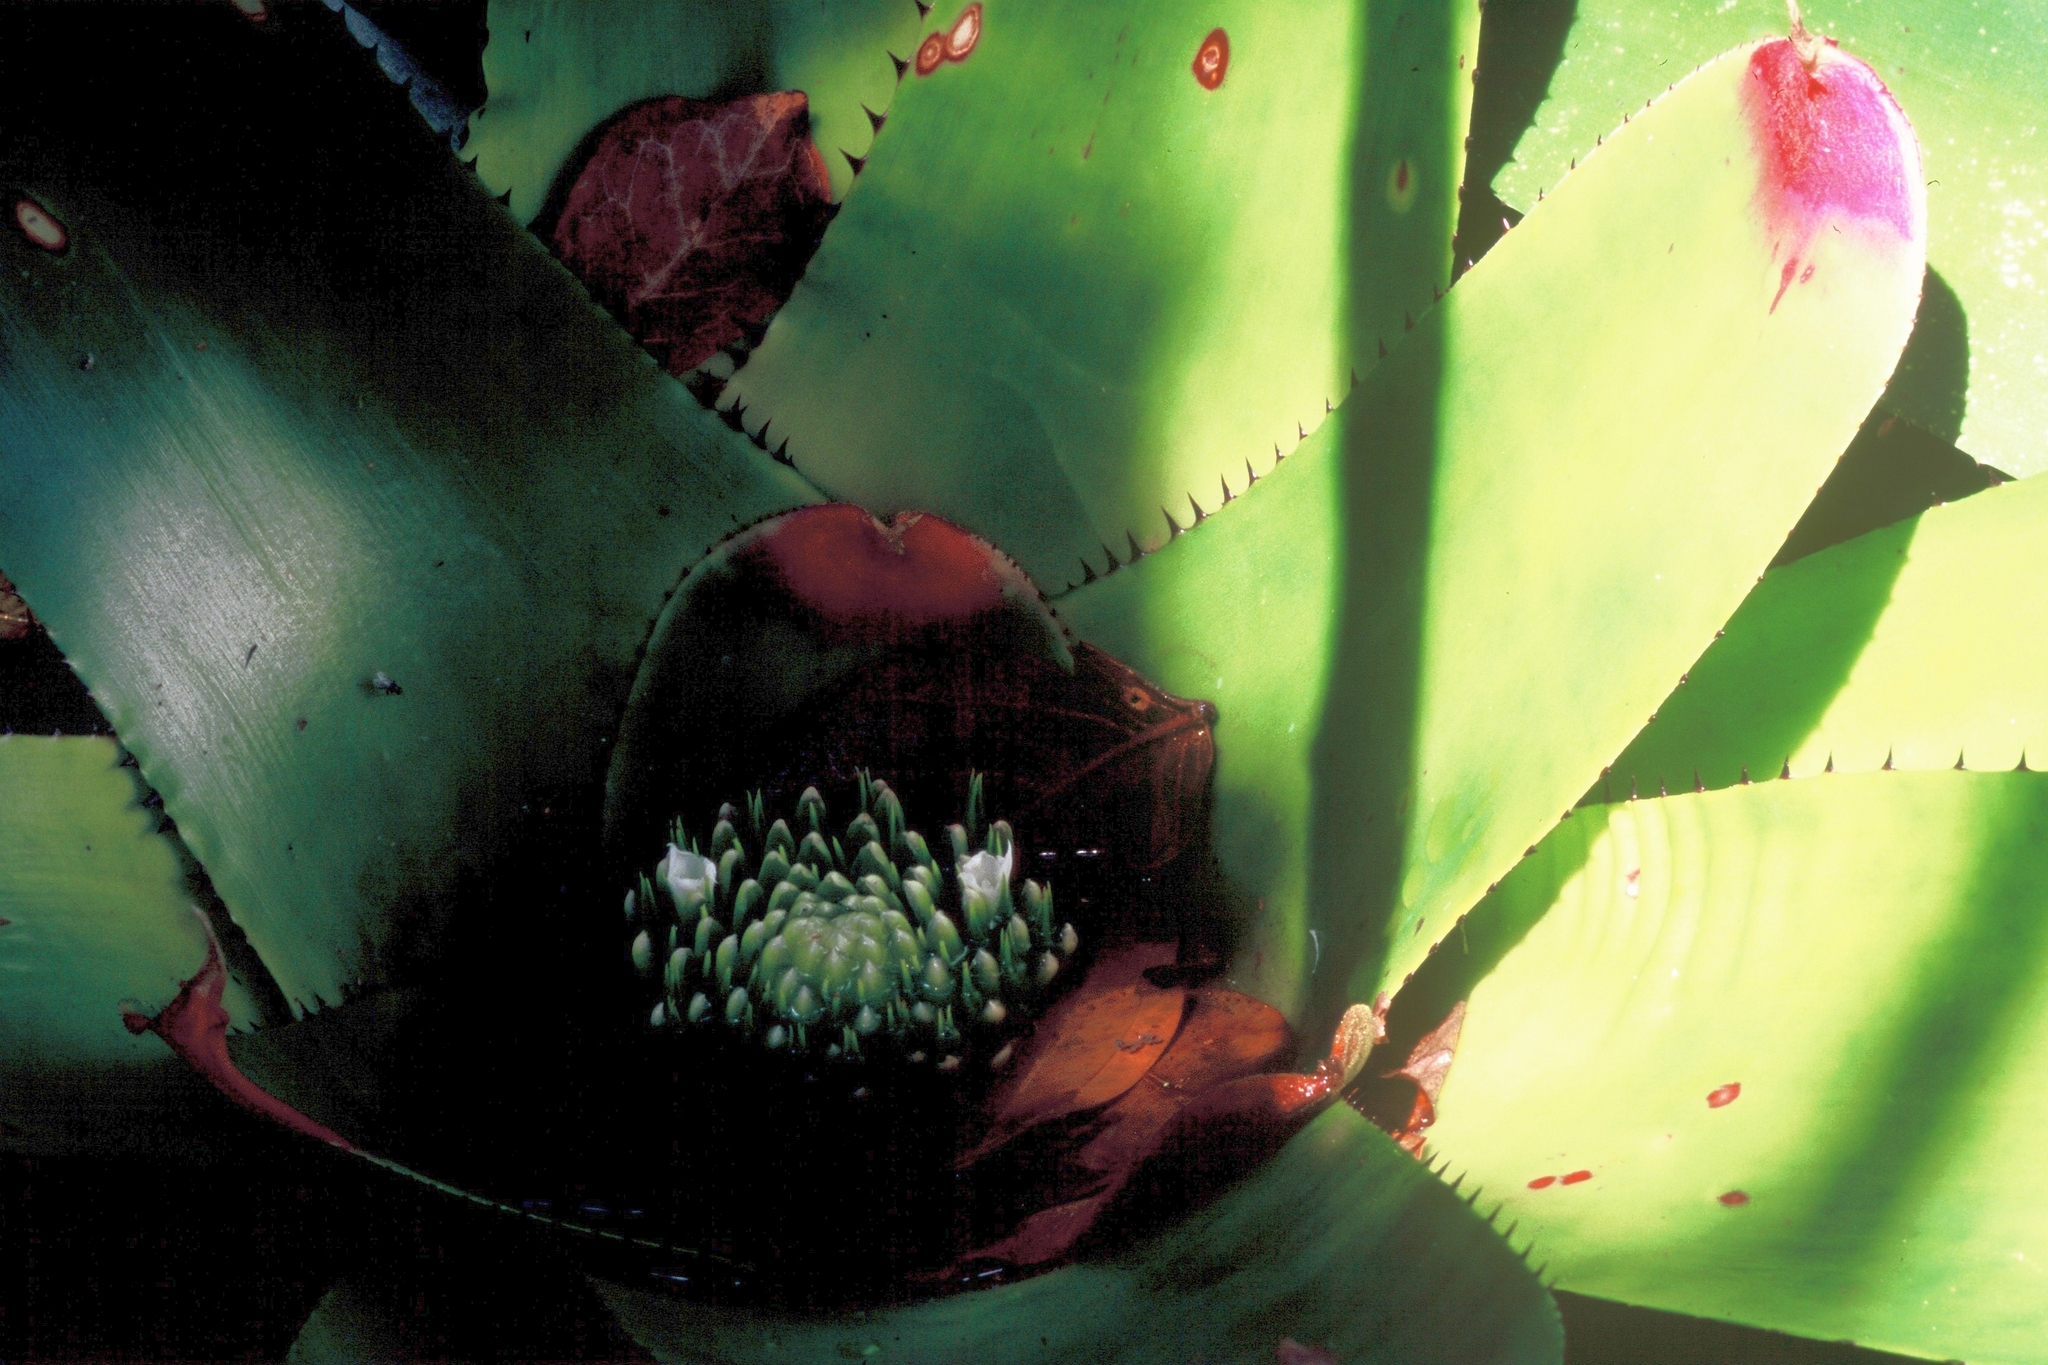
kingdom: Plantae
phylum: Tracheophyta
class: Liliopsida
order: Poales
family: Bromeliaceae
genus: Neoregelia
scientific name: Neoregelia johannis
